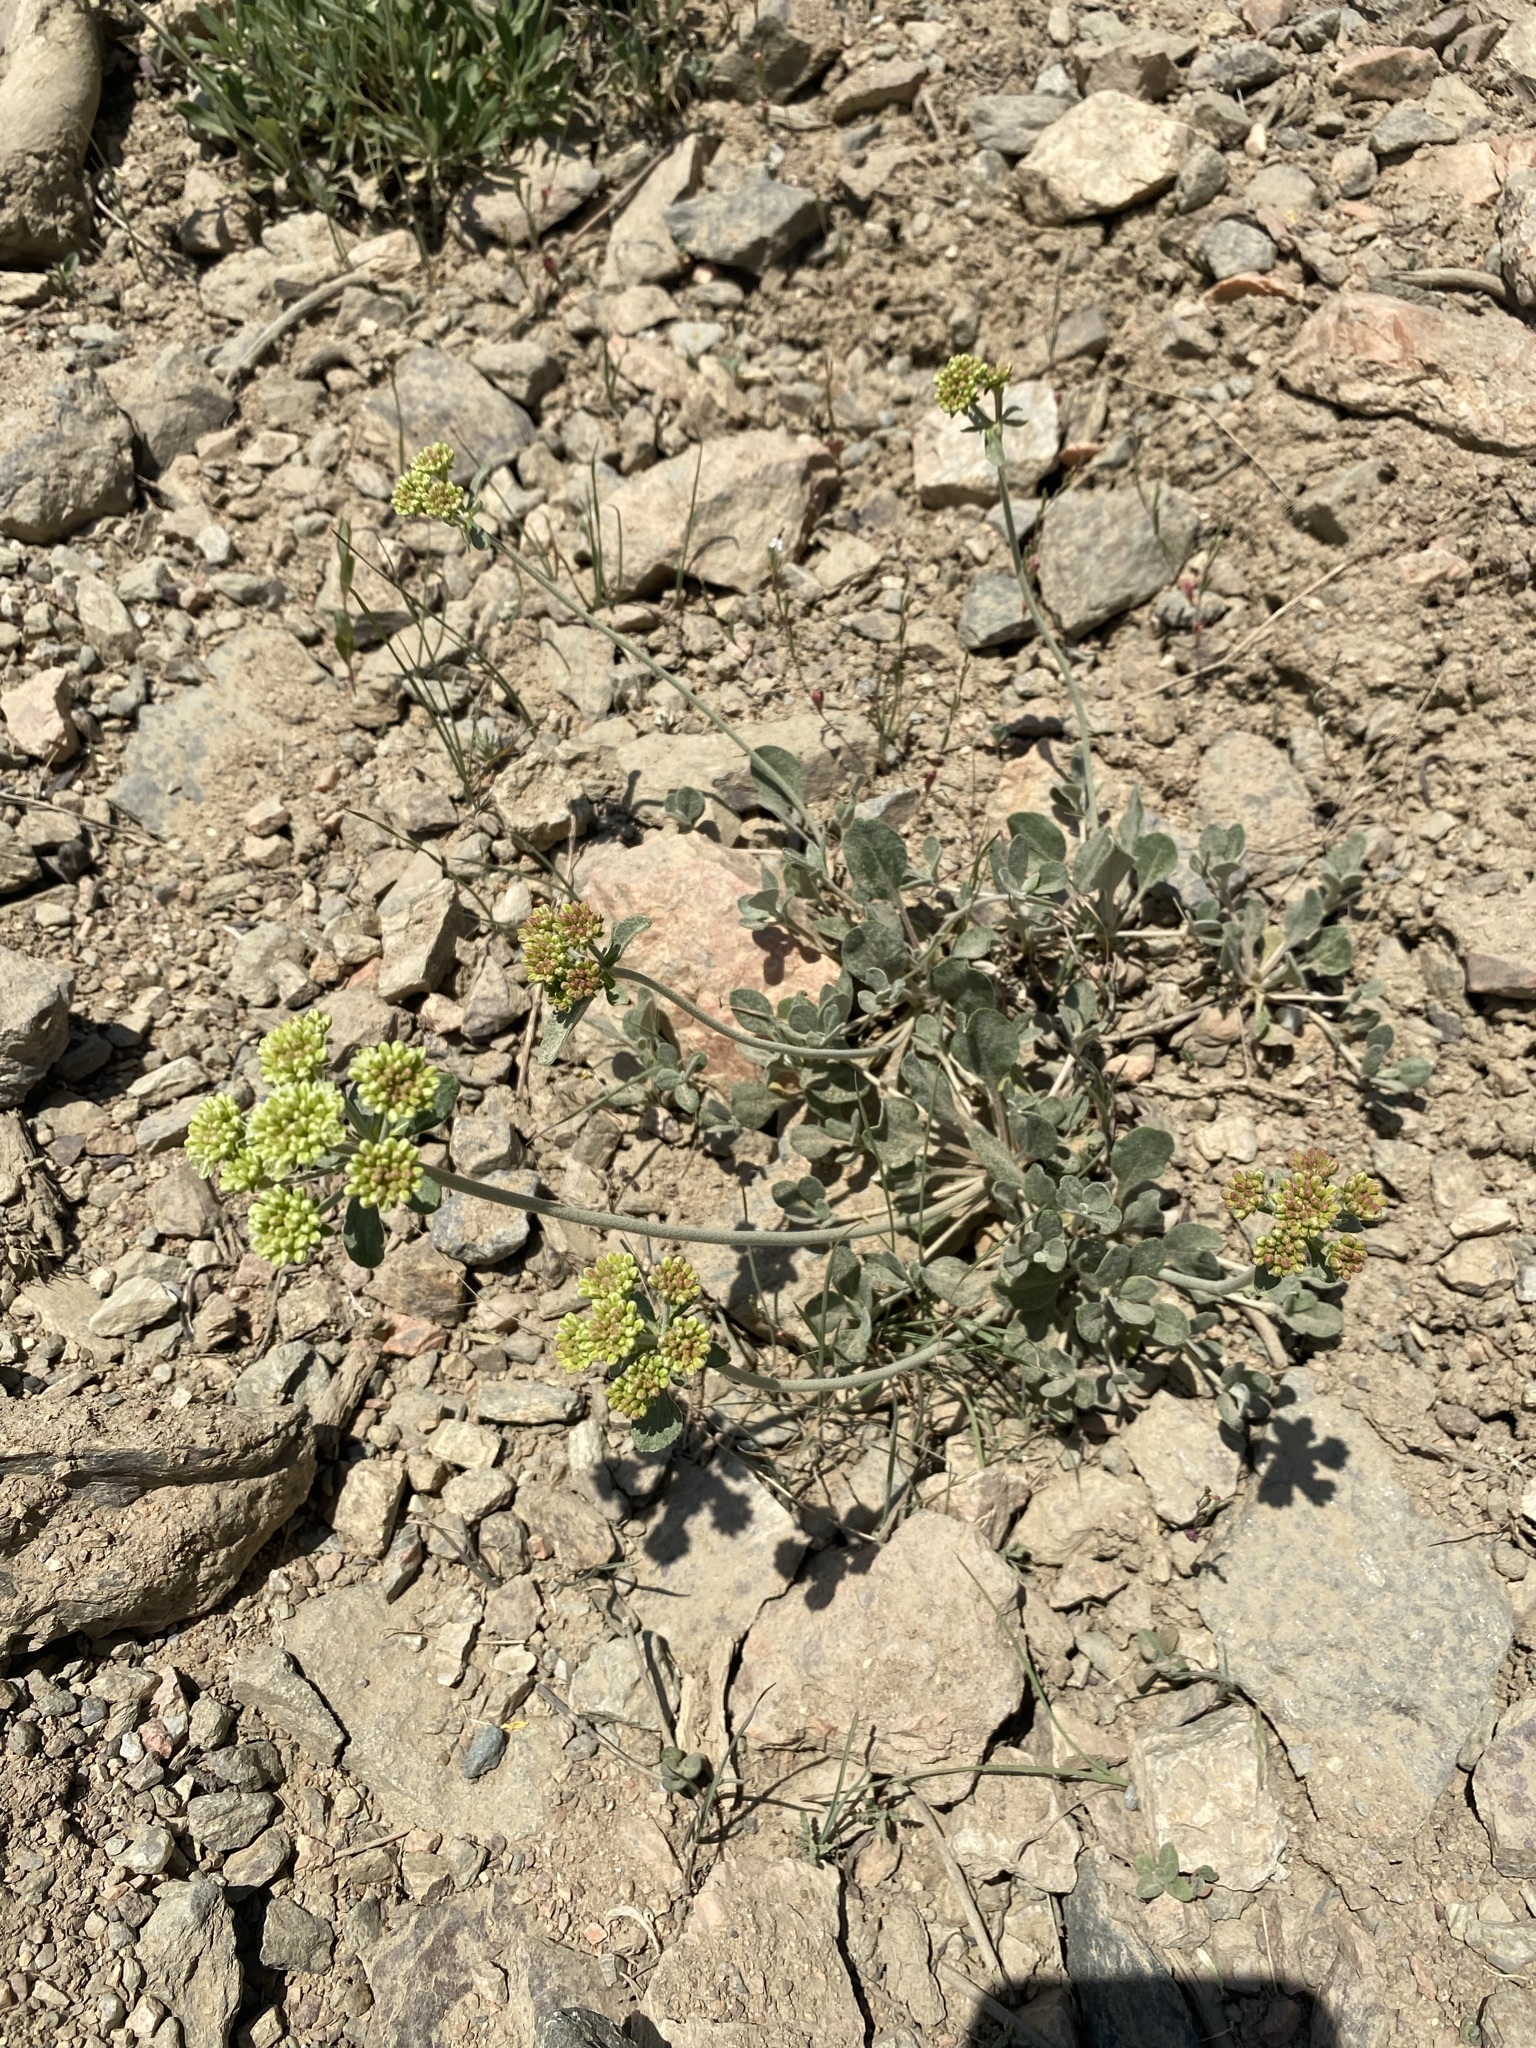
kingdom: Plantae
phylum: Tracheophyta
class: Magnoliopsida
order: Caryophyllales
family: Polygonaceae
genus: Eriogonum
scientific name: Eriogonum umbellatum
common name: Sulfur-buckwheat
